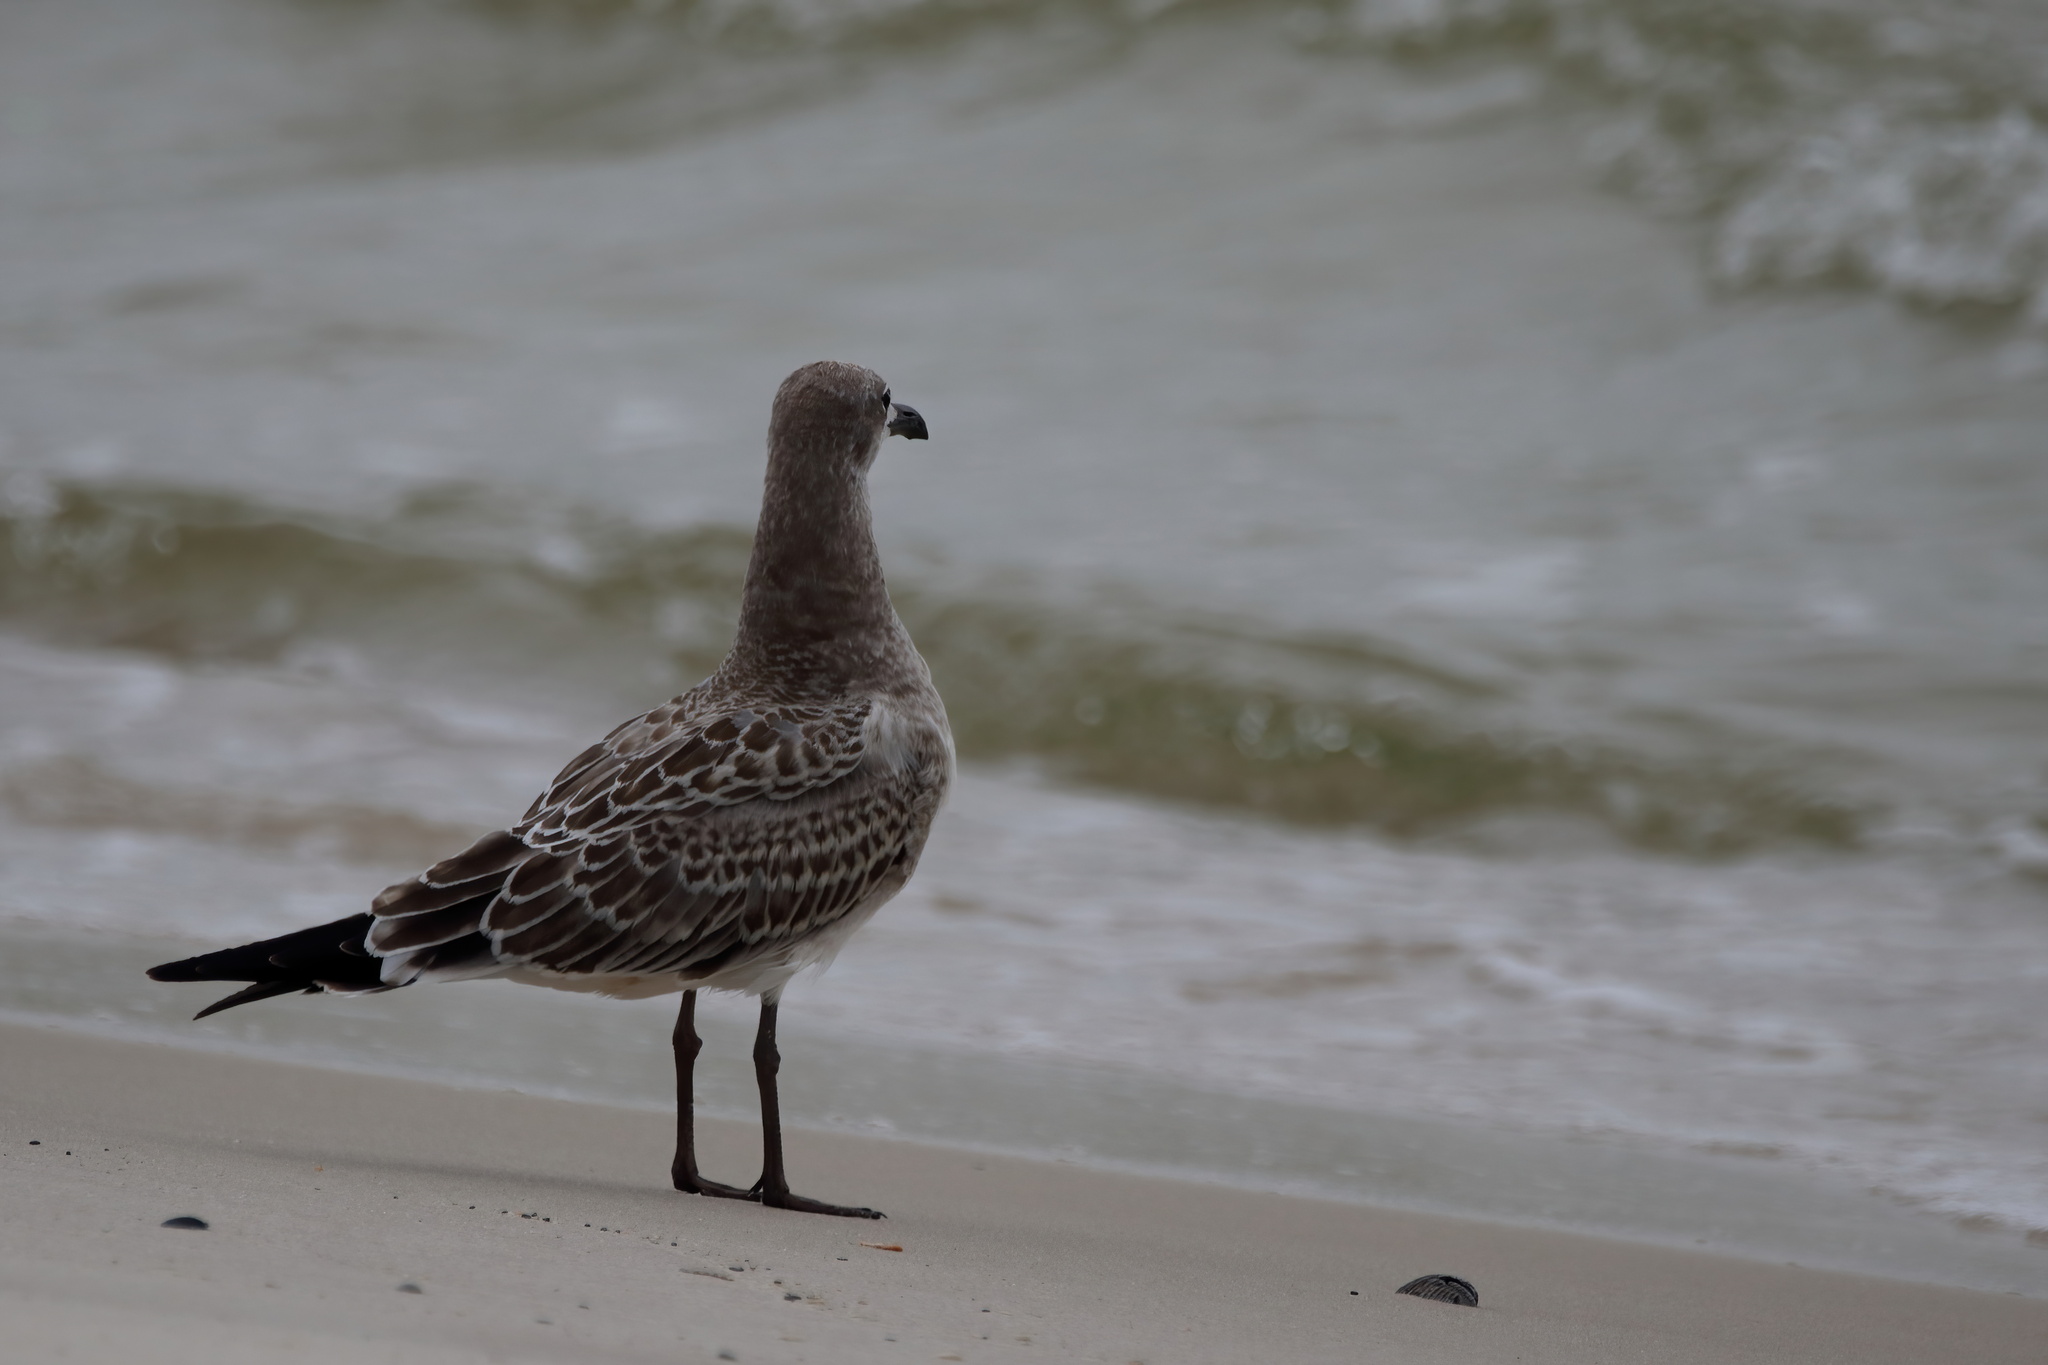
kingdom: Animalia
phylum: Chordata
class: Aves
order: Charadriiformes
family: Laridae
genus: Leucophaeus
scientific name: Leucophaeus atricilla
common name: Laughing gull
